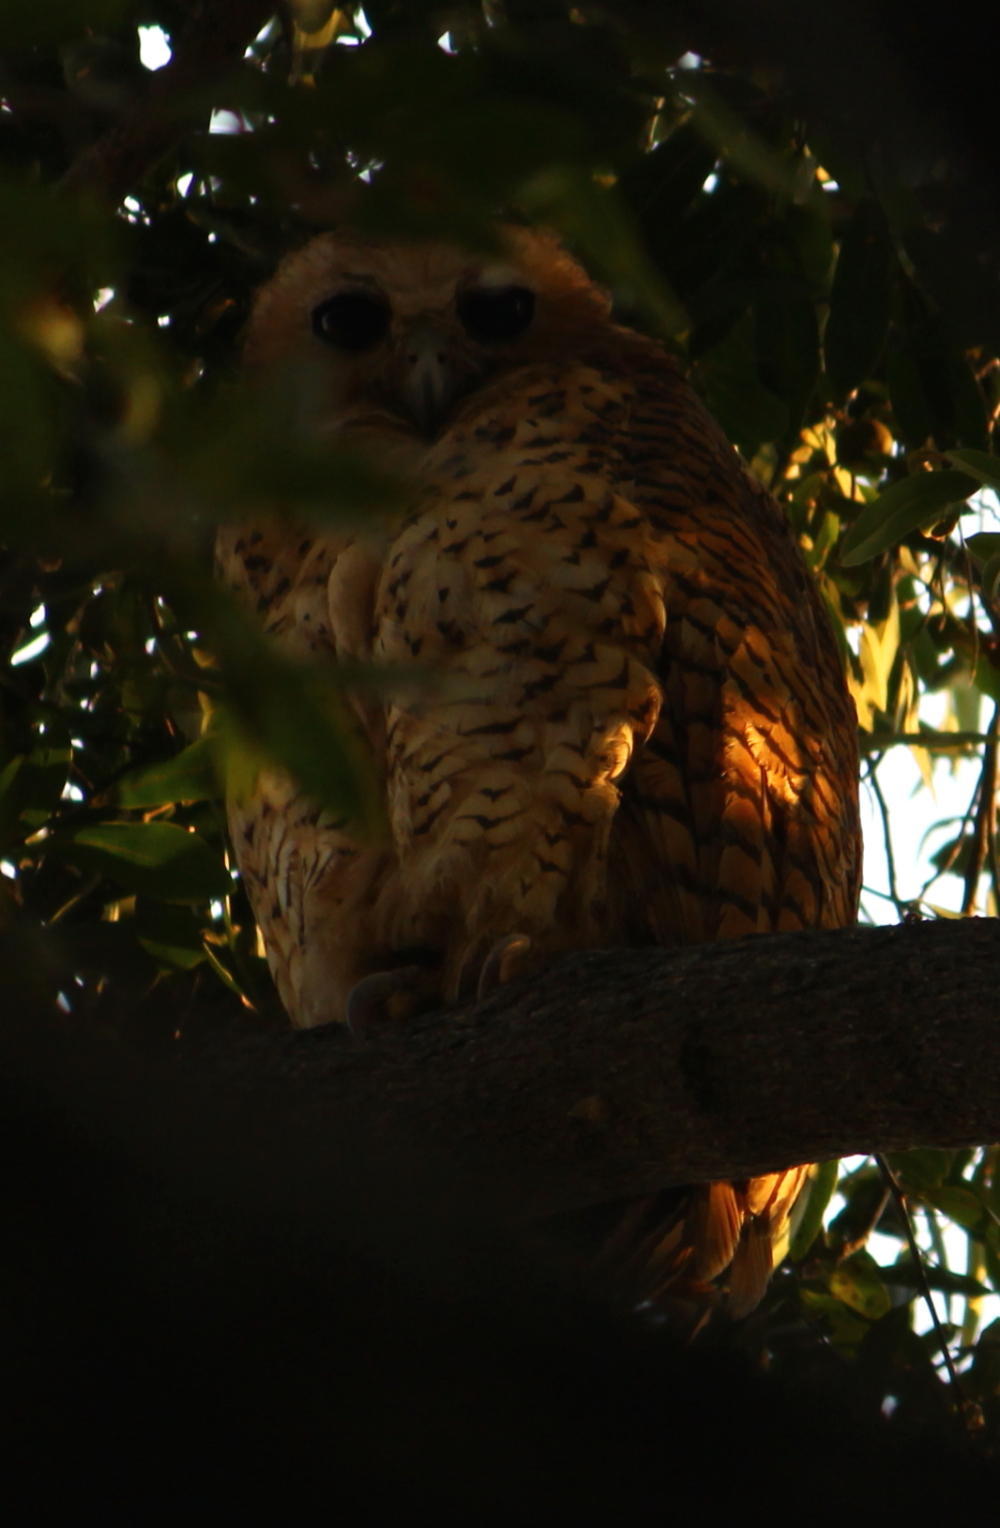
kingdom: Animalia
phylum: Chordata
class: Aves
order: Strigiformes
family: Strigidae
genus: Scotopelia
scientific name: Scotopelia peli
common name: Pel's fishing owl
